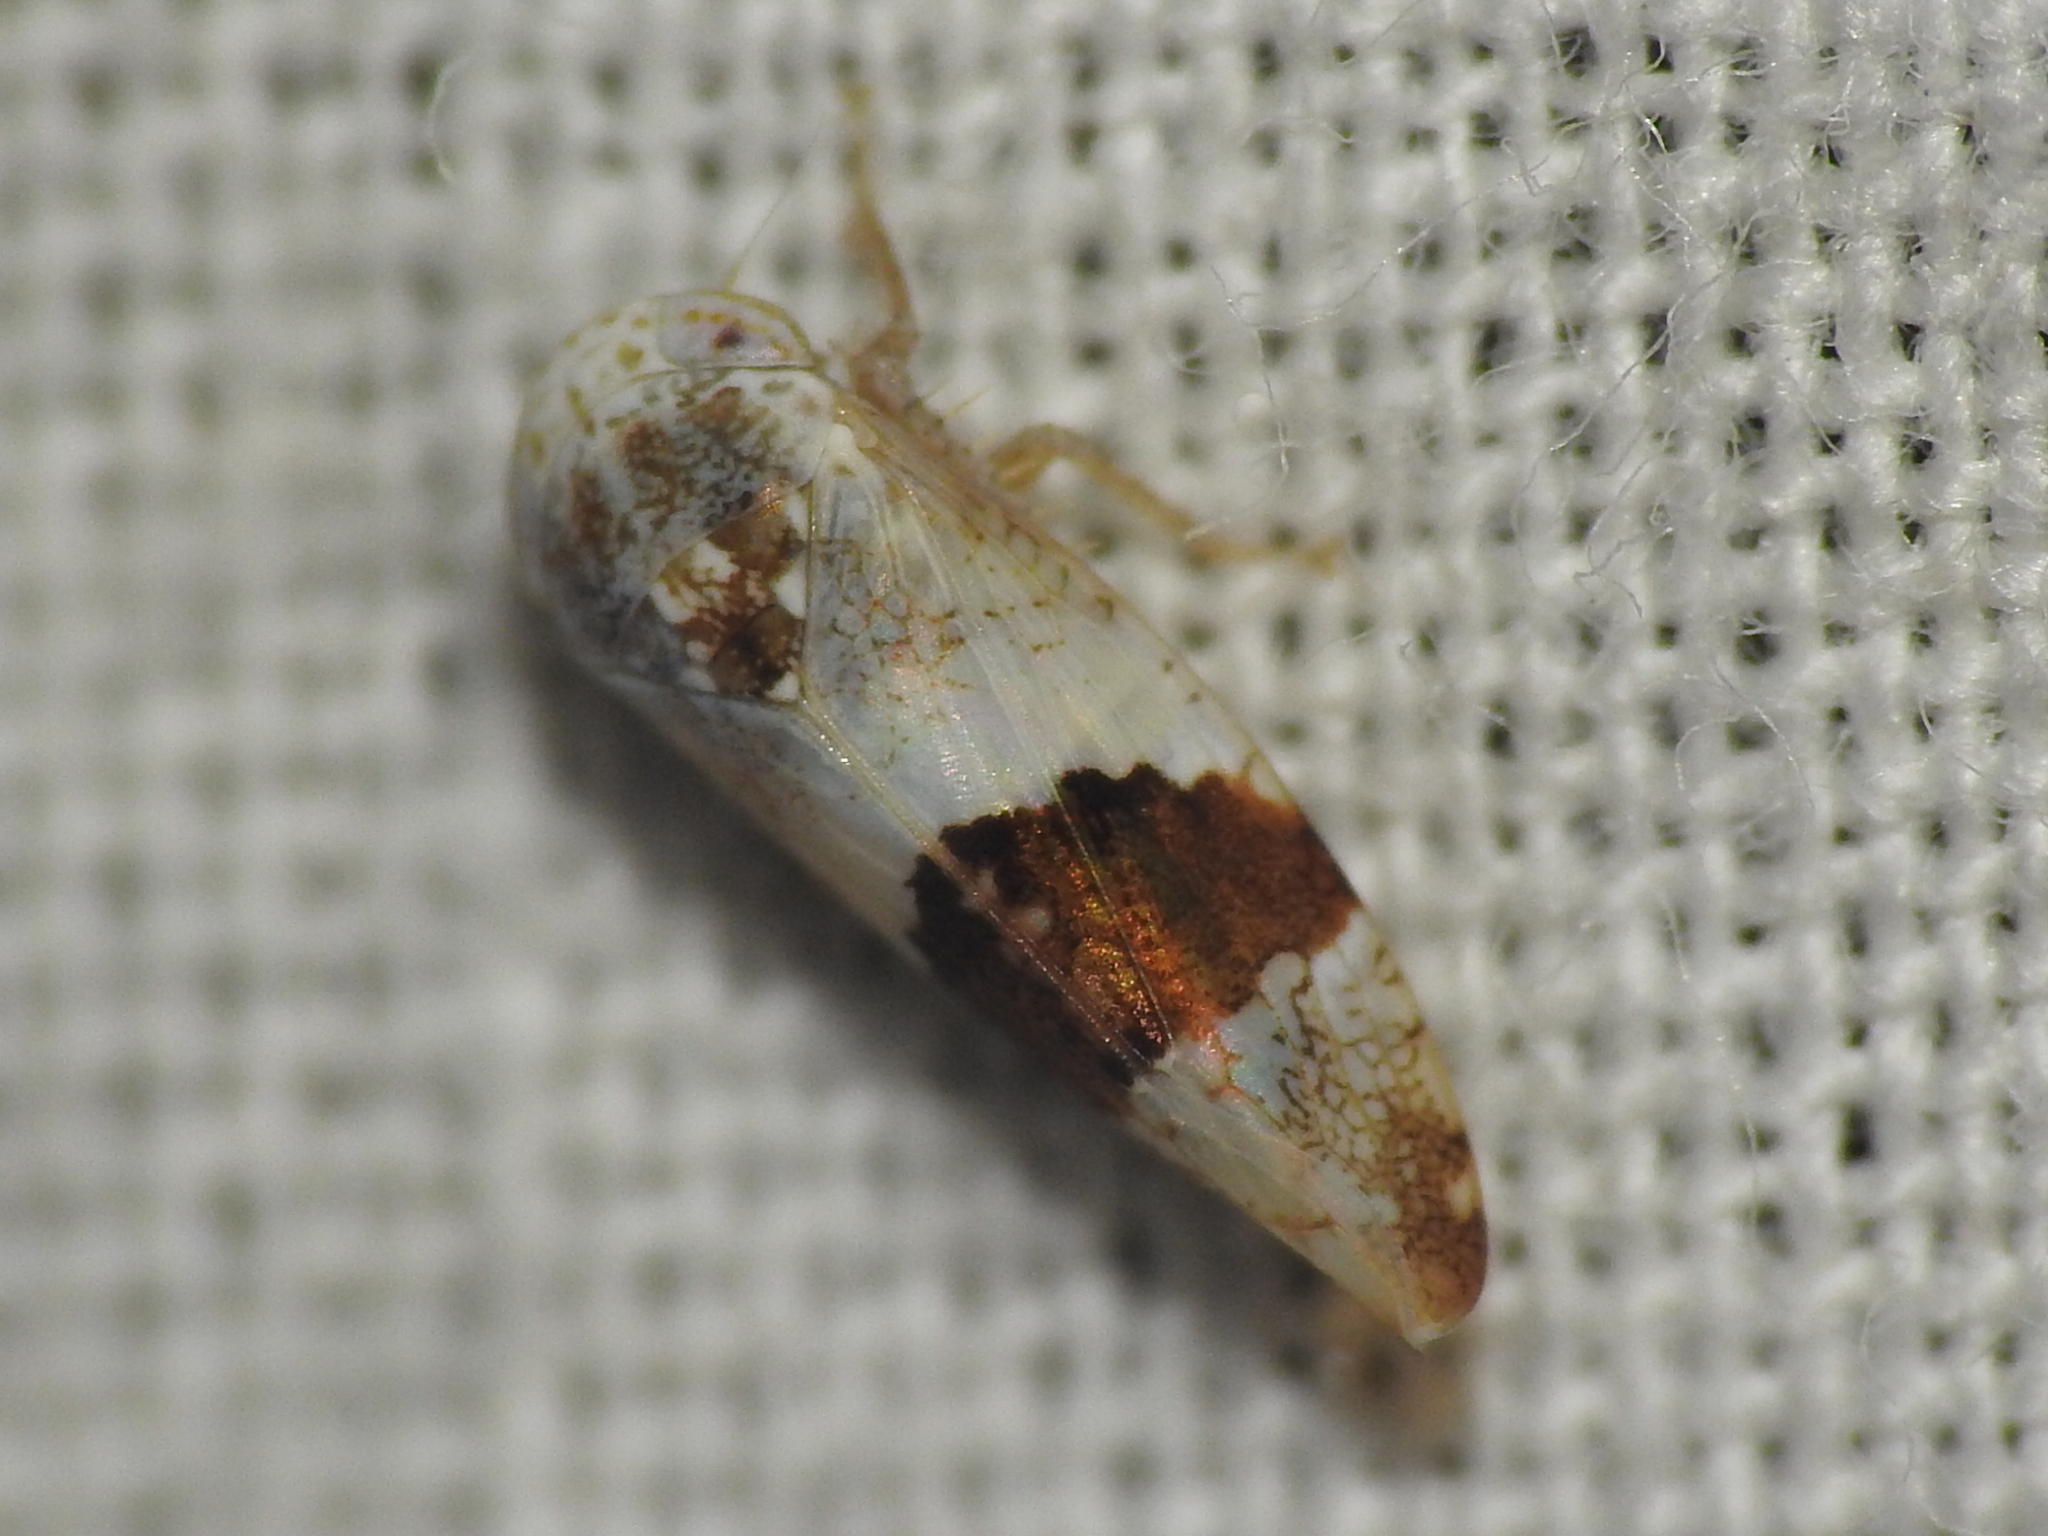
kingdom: Animalia
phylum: Arthropoda
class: Insecta
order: Hemiptera
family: Cicadellidae
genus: Norvellina
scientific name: Norvellina seminuda
